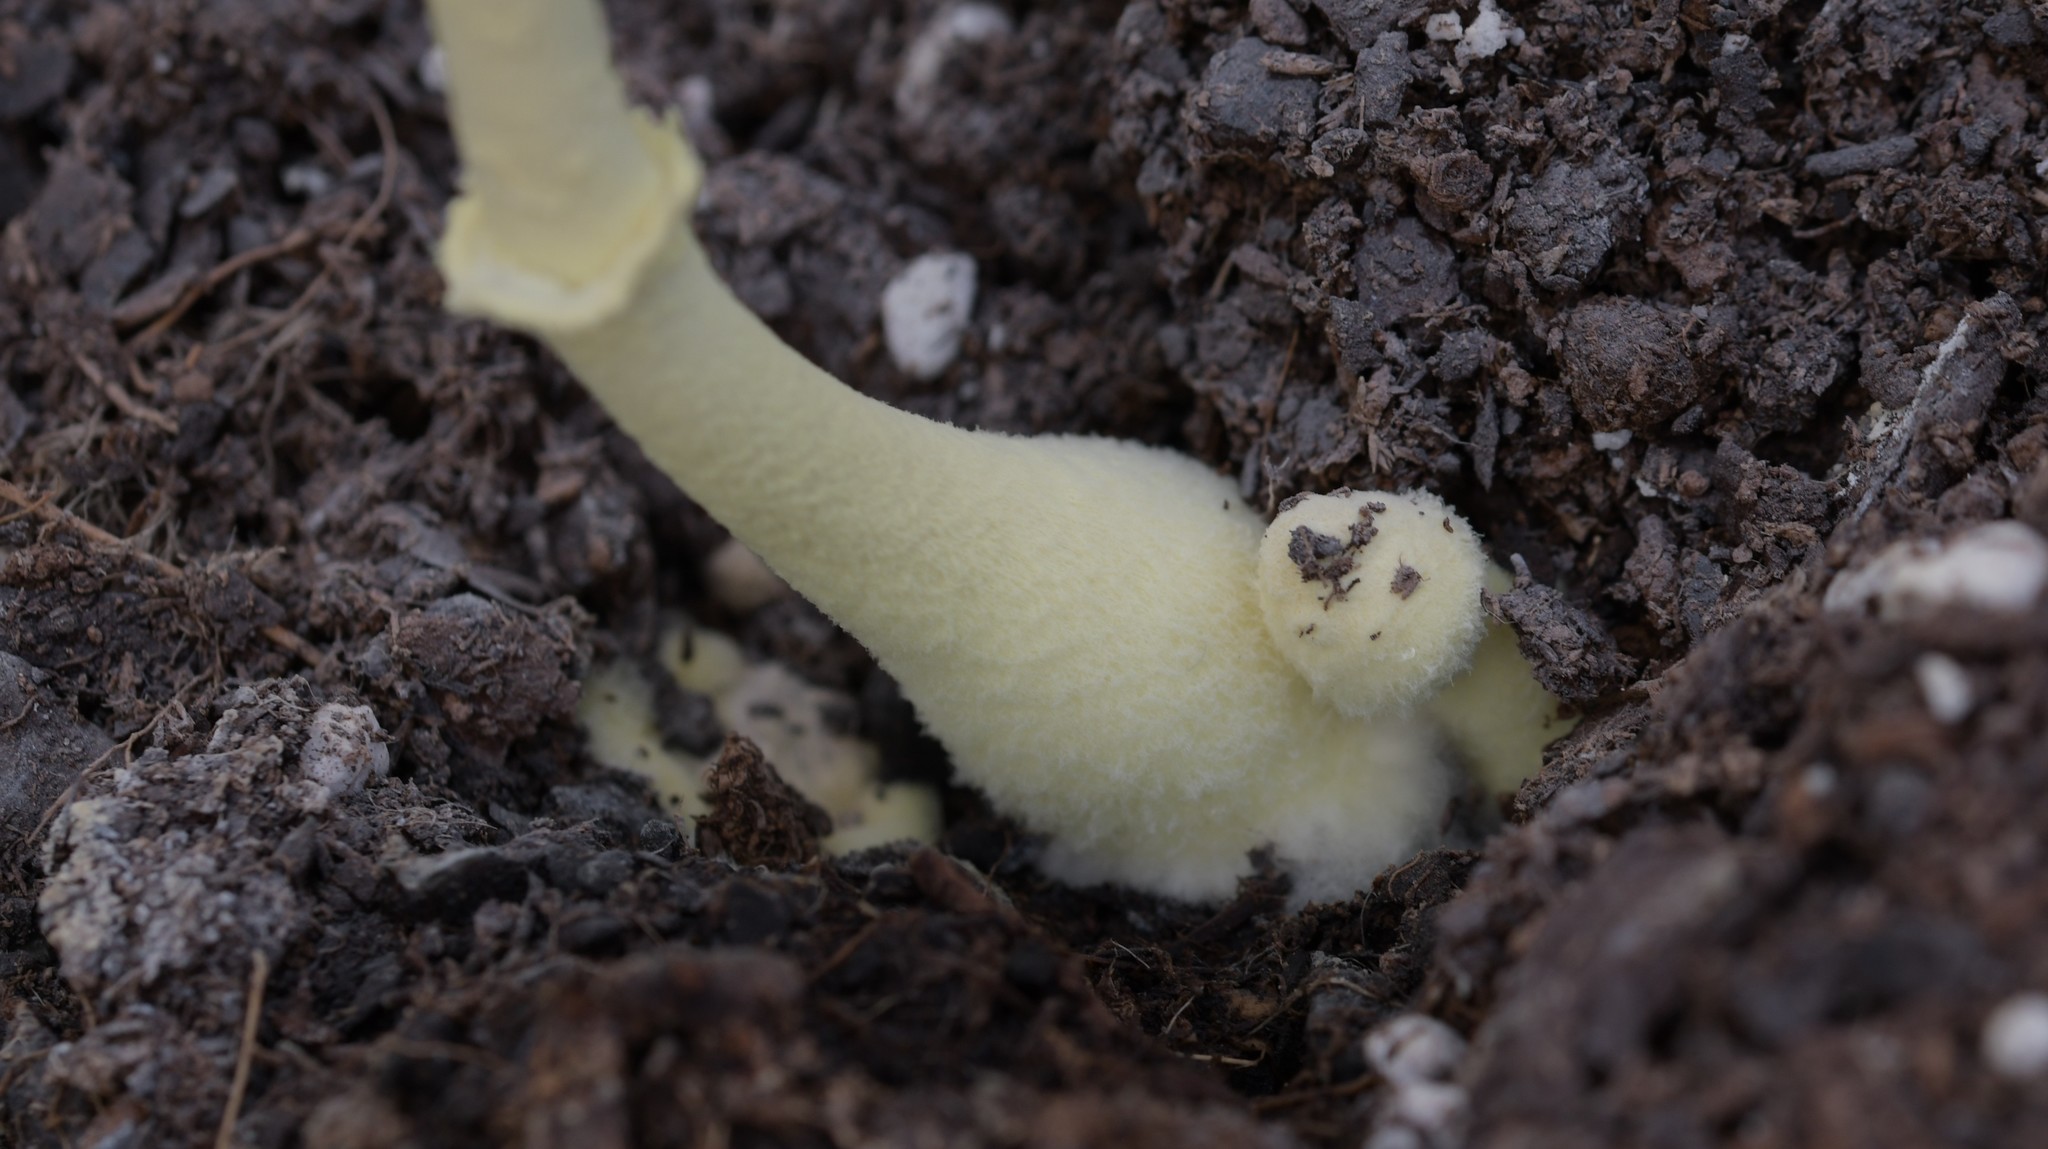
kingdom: Fungi
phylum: Basidiomycota
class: Agaricomycetes
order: Agaricales
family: Agaricaceae
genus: Leucocoprinus
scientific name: Leucocoprinus birnbaumii
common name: Plantpot dapperling
